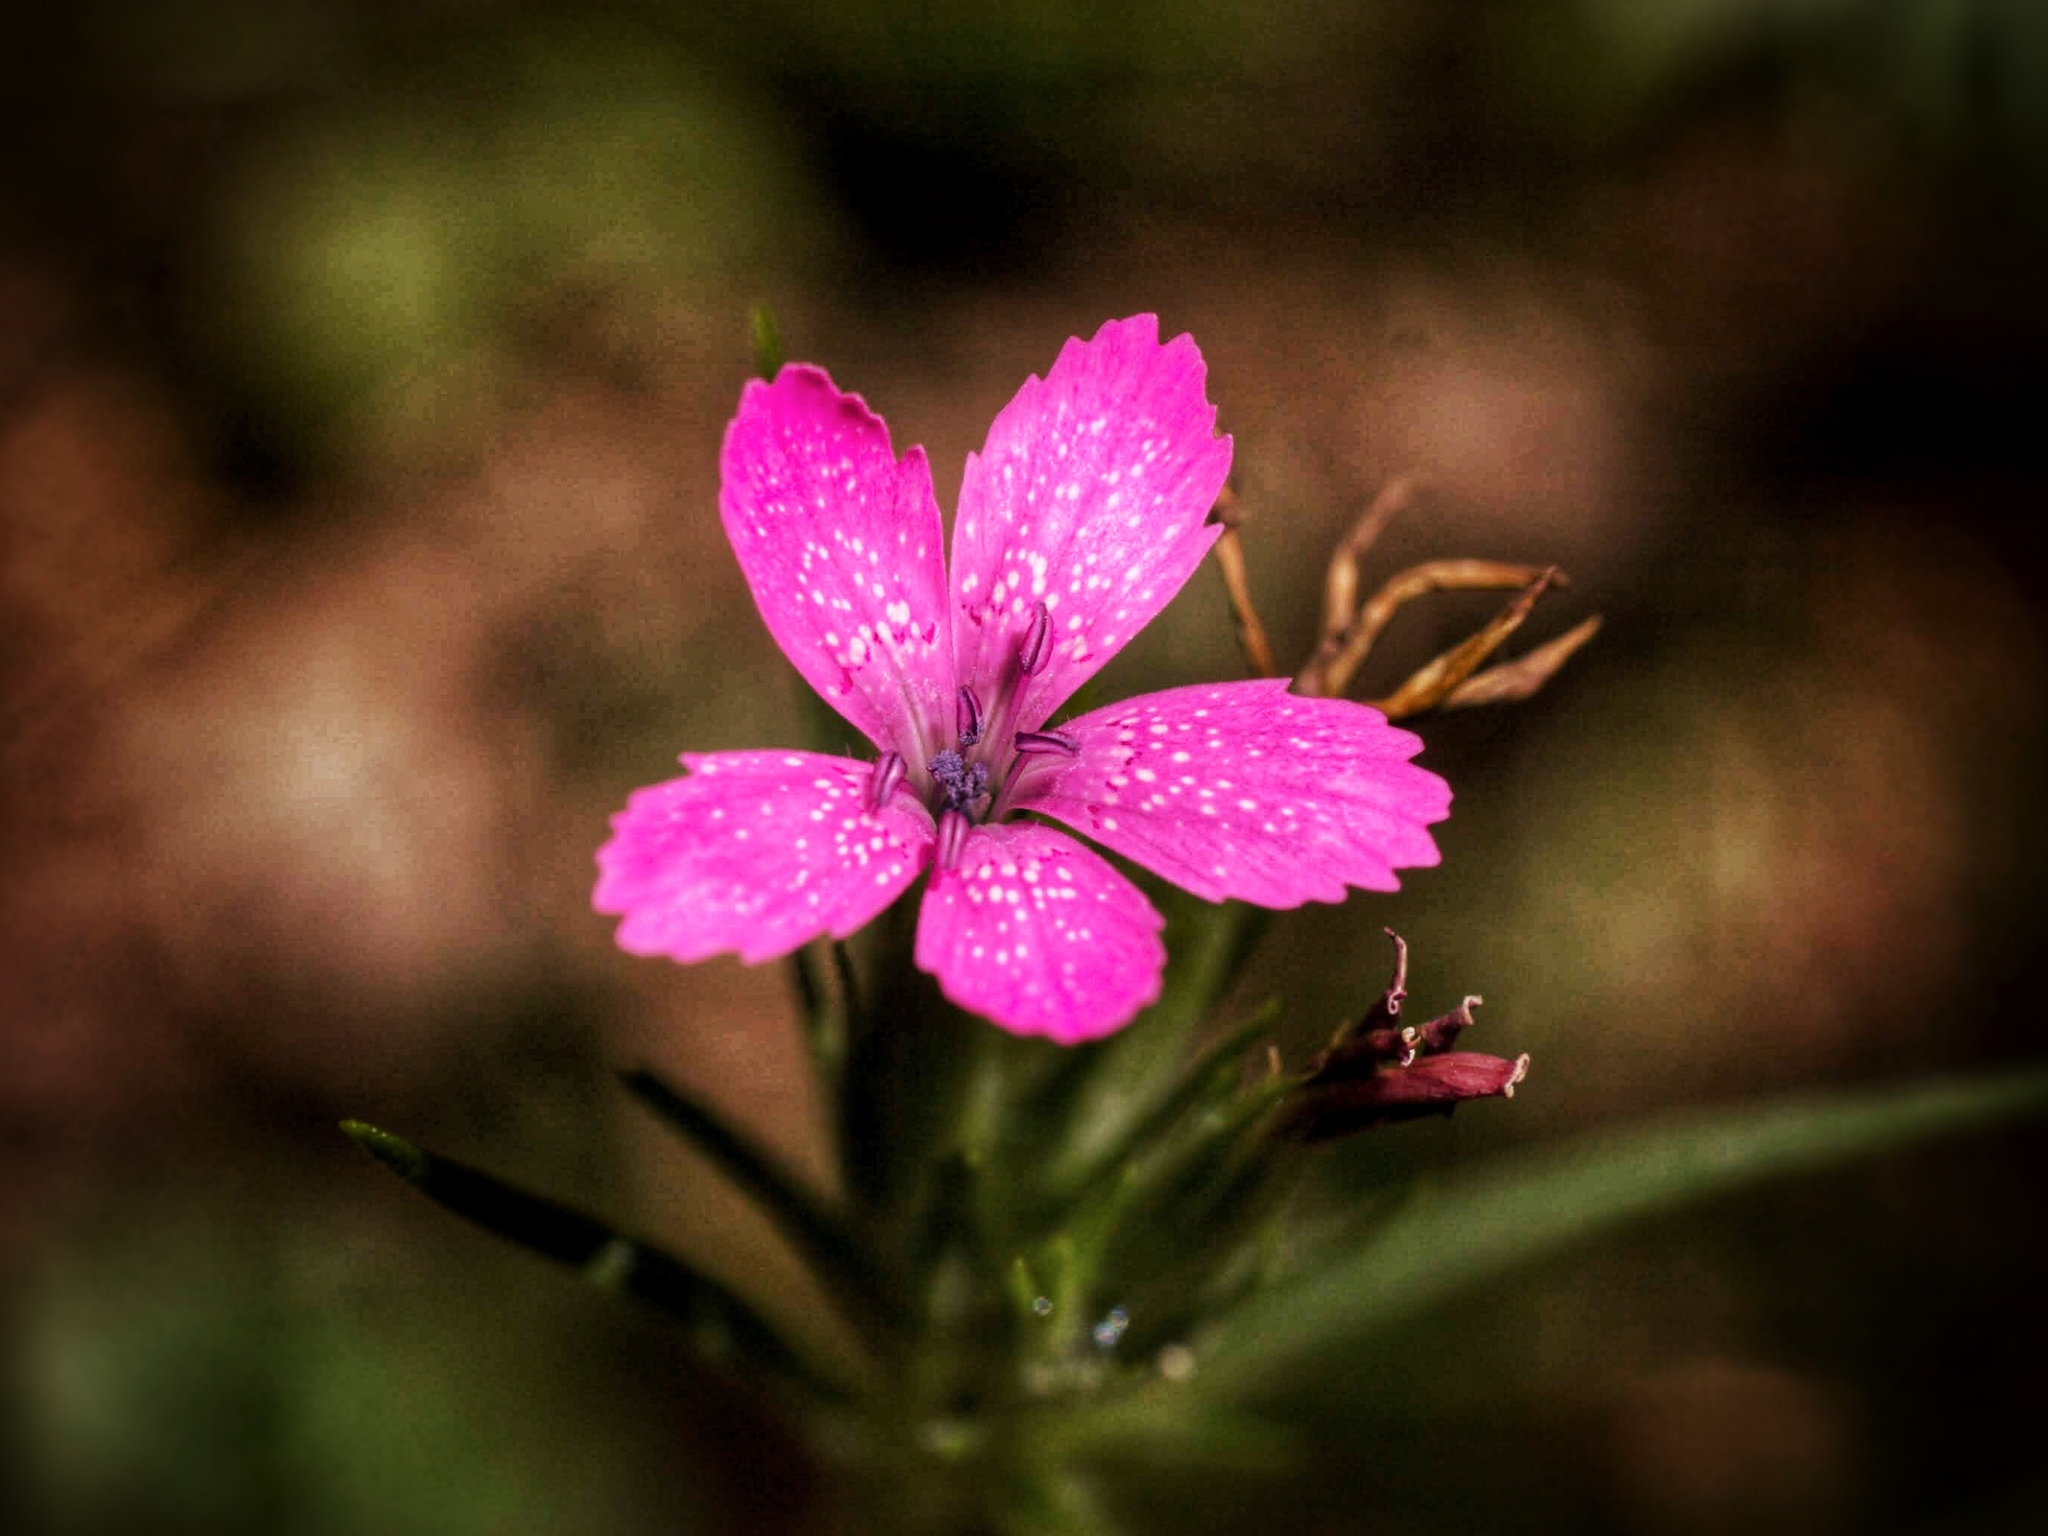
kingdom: Plantae
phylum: Tracheophyta
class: Magnoliopsida
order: Caryophyllales
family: Caryophyllaceae
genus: Dianthus
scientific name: Dianthus armeria
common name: Deptford pink
